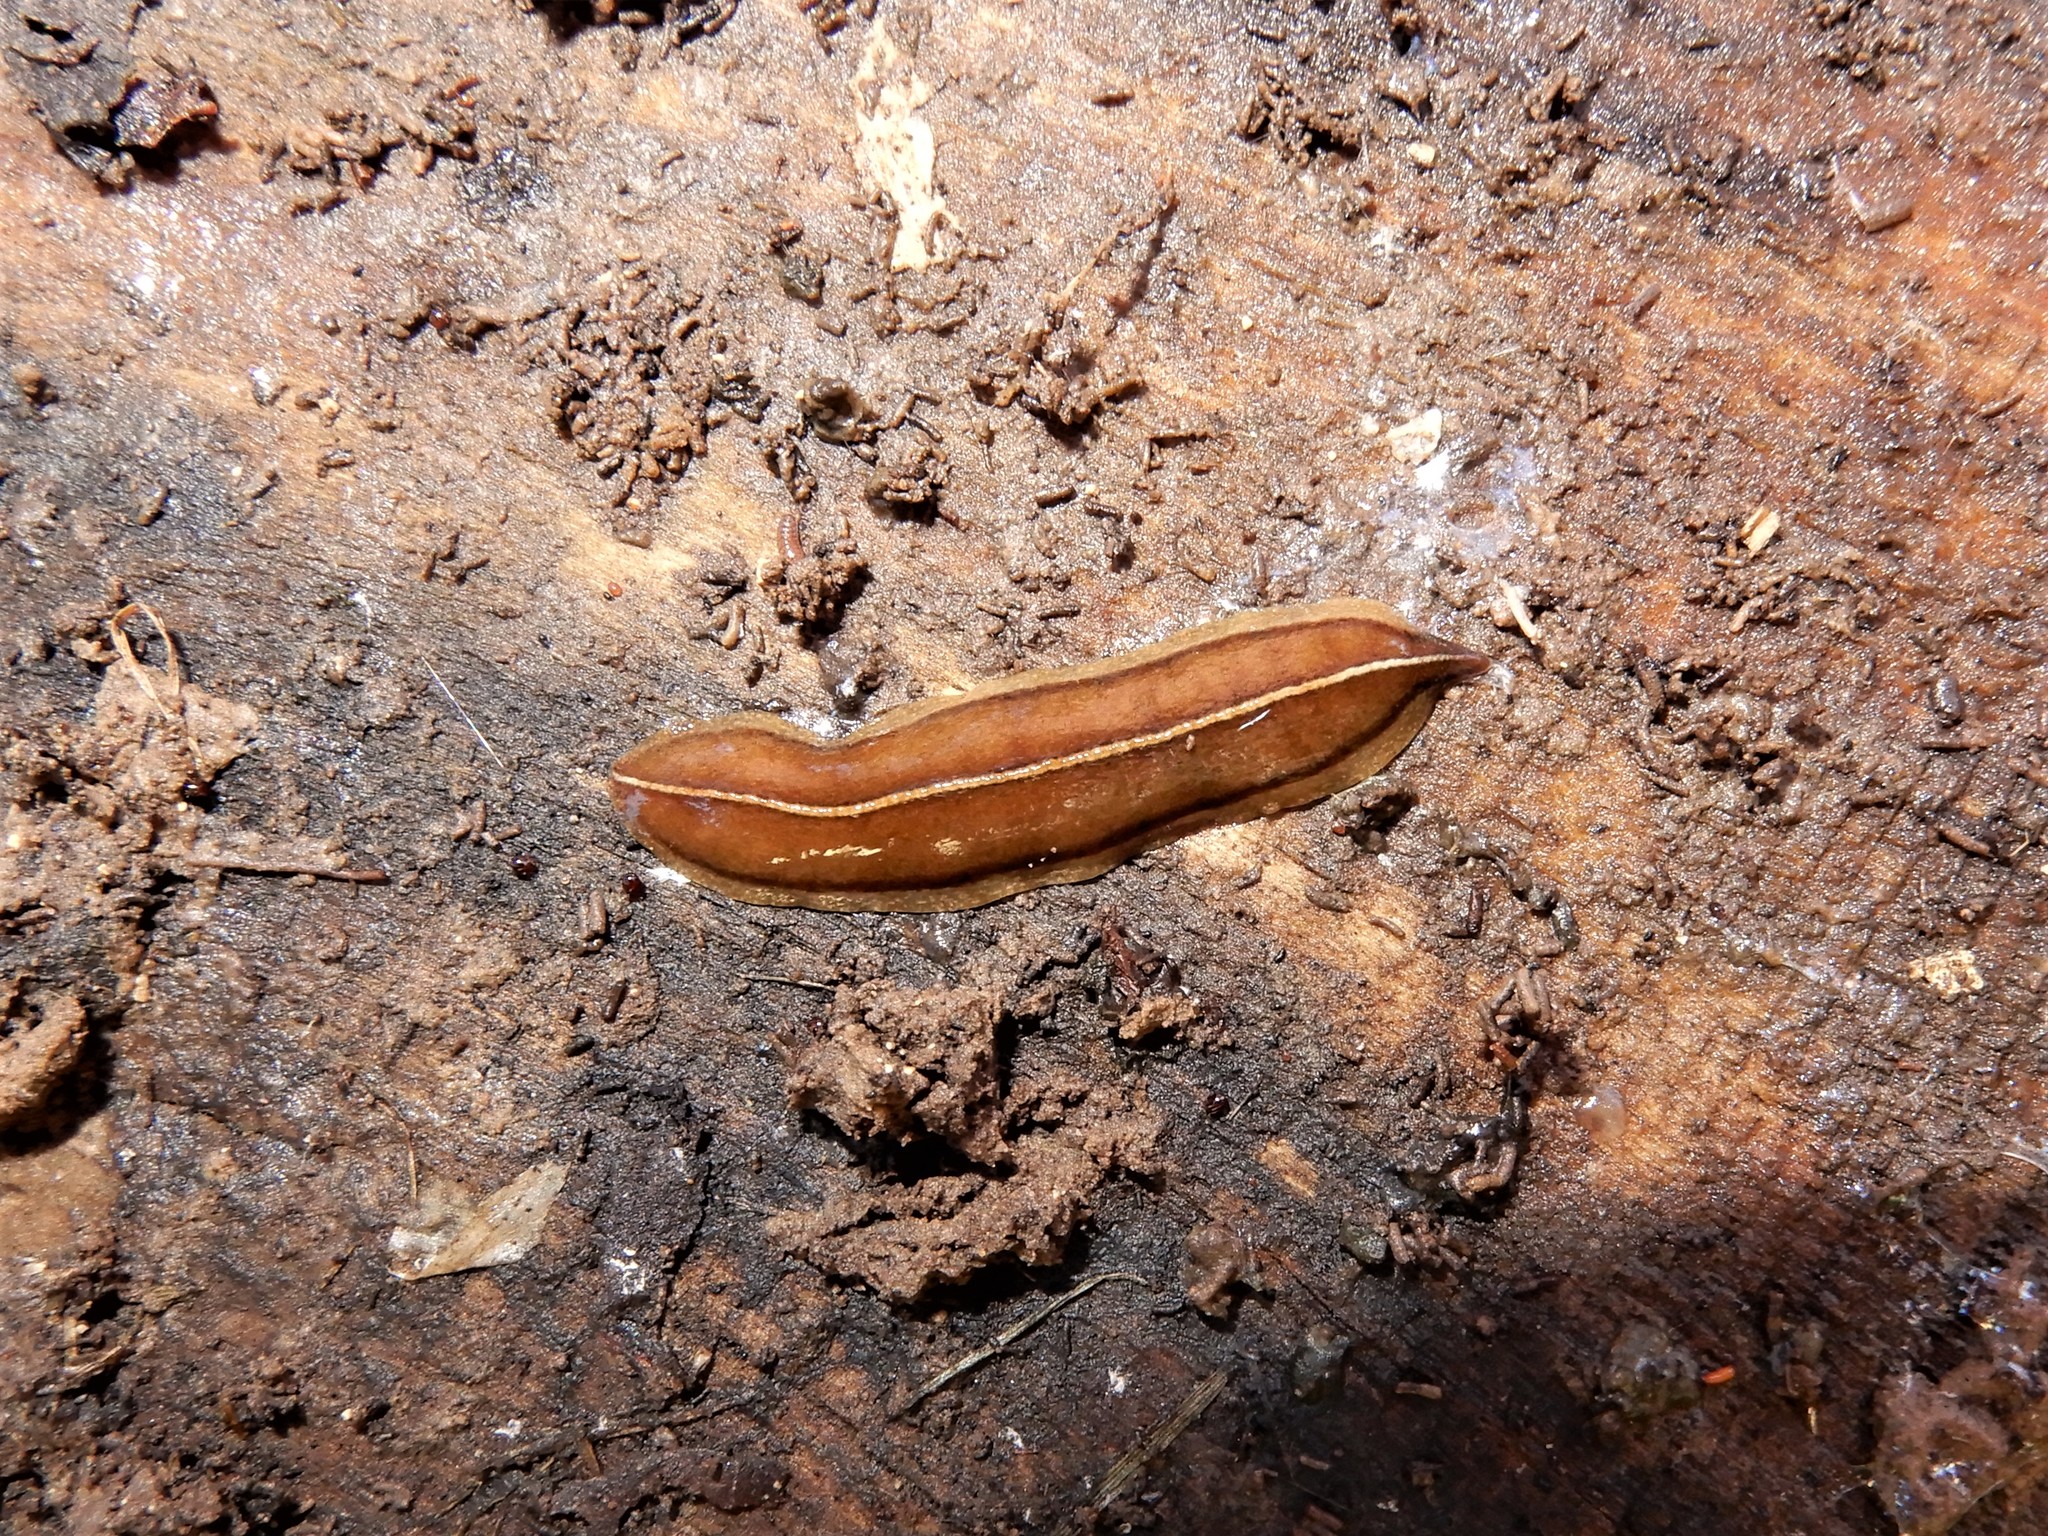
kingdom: Animalia
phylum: Platyhelminthes
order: Tricladida
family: Geoplanidae
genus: Newzealandia
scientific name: Newzealandia graffii
